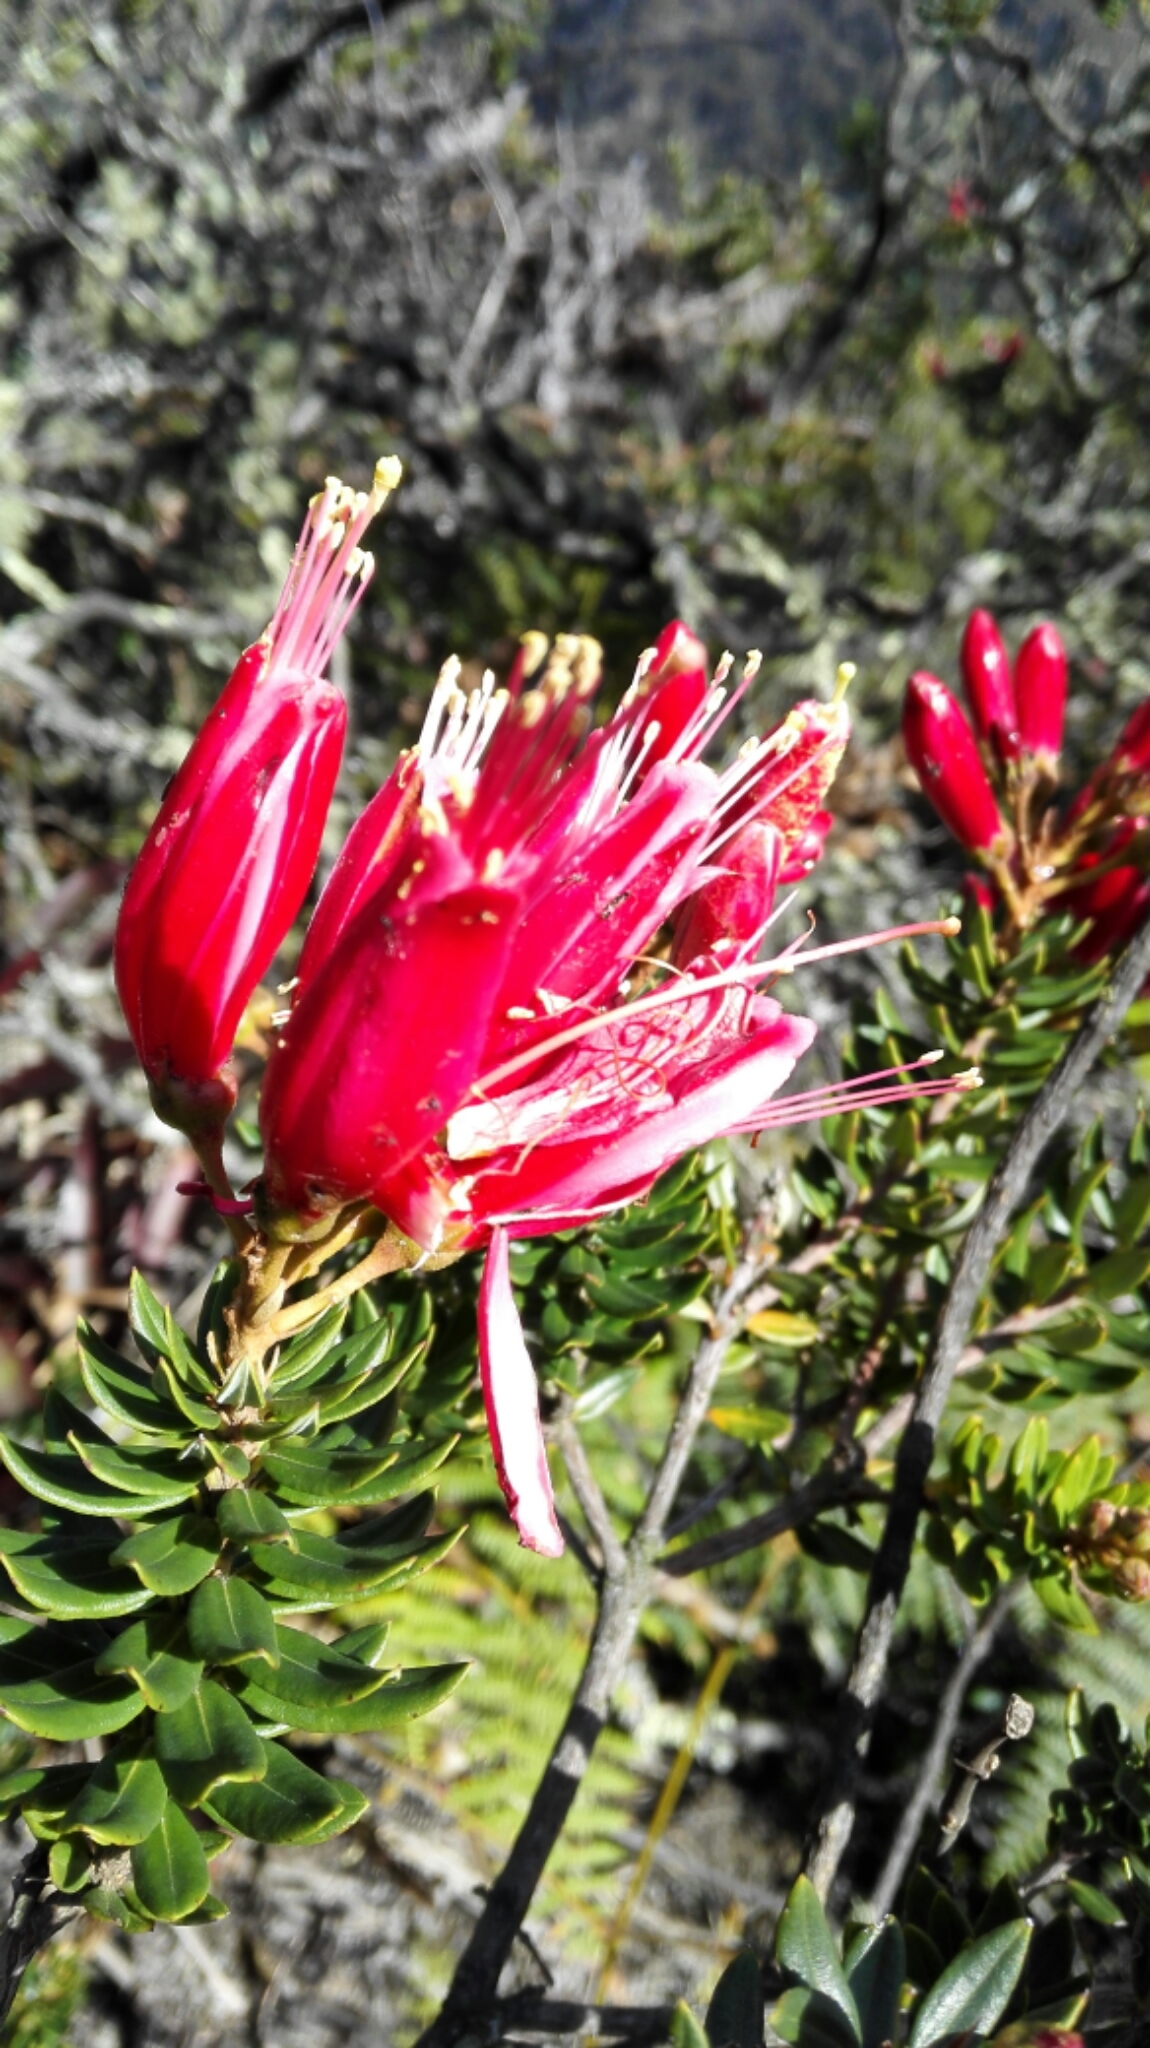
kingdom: Plantae
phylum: Tracheophyta
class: Magnoliopsida
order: Ericales
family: Ericaceae
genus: Bejaria
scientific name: Bejaria resinosa
